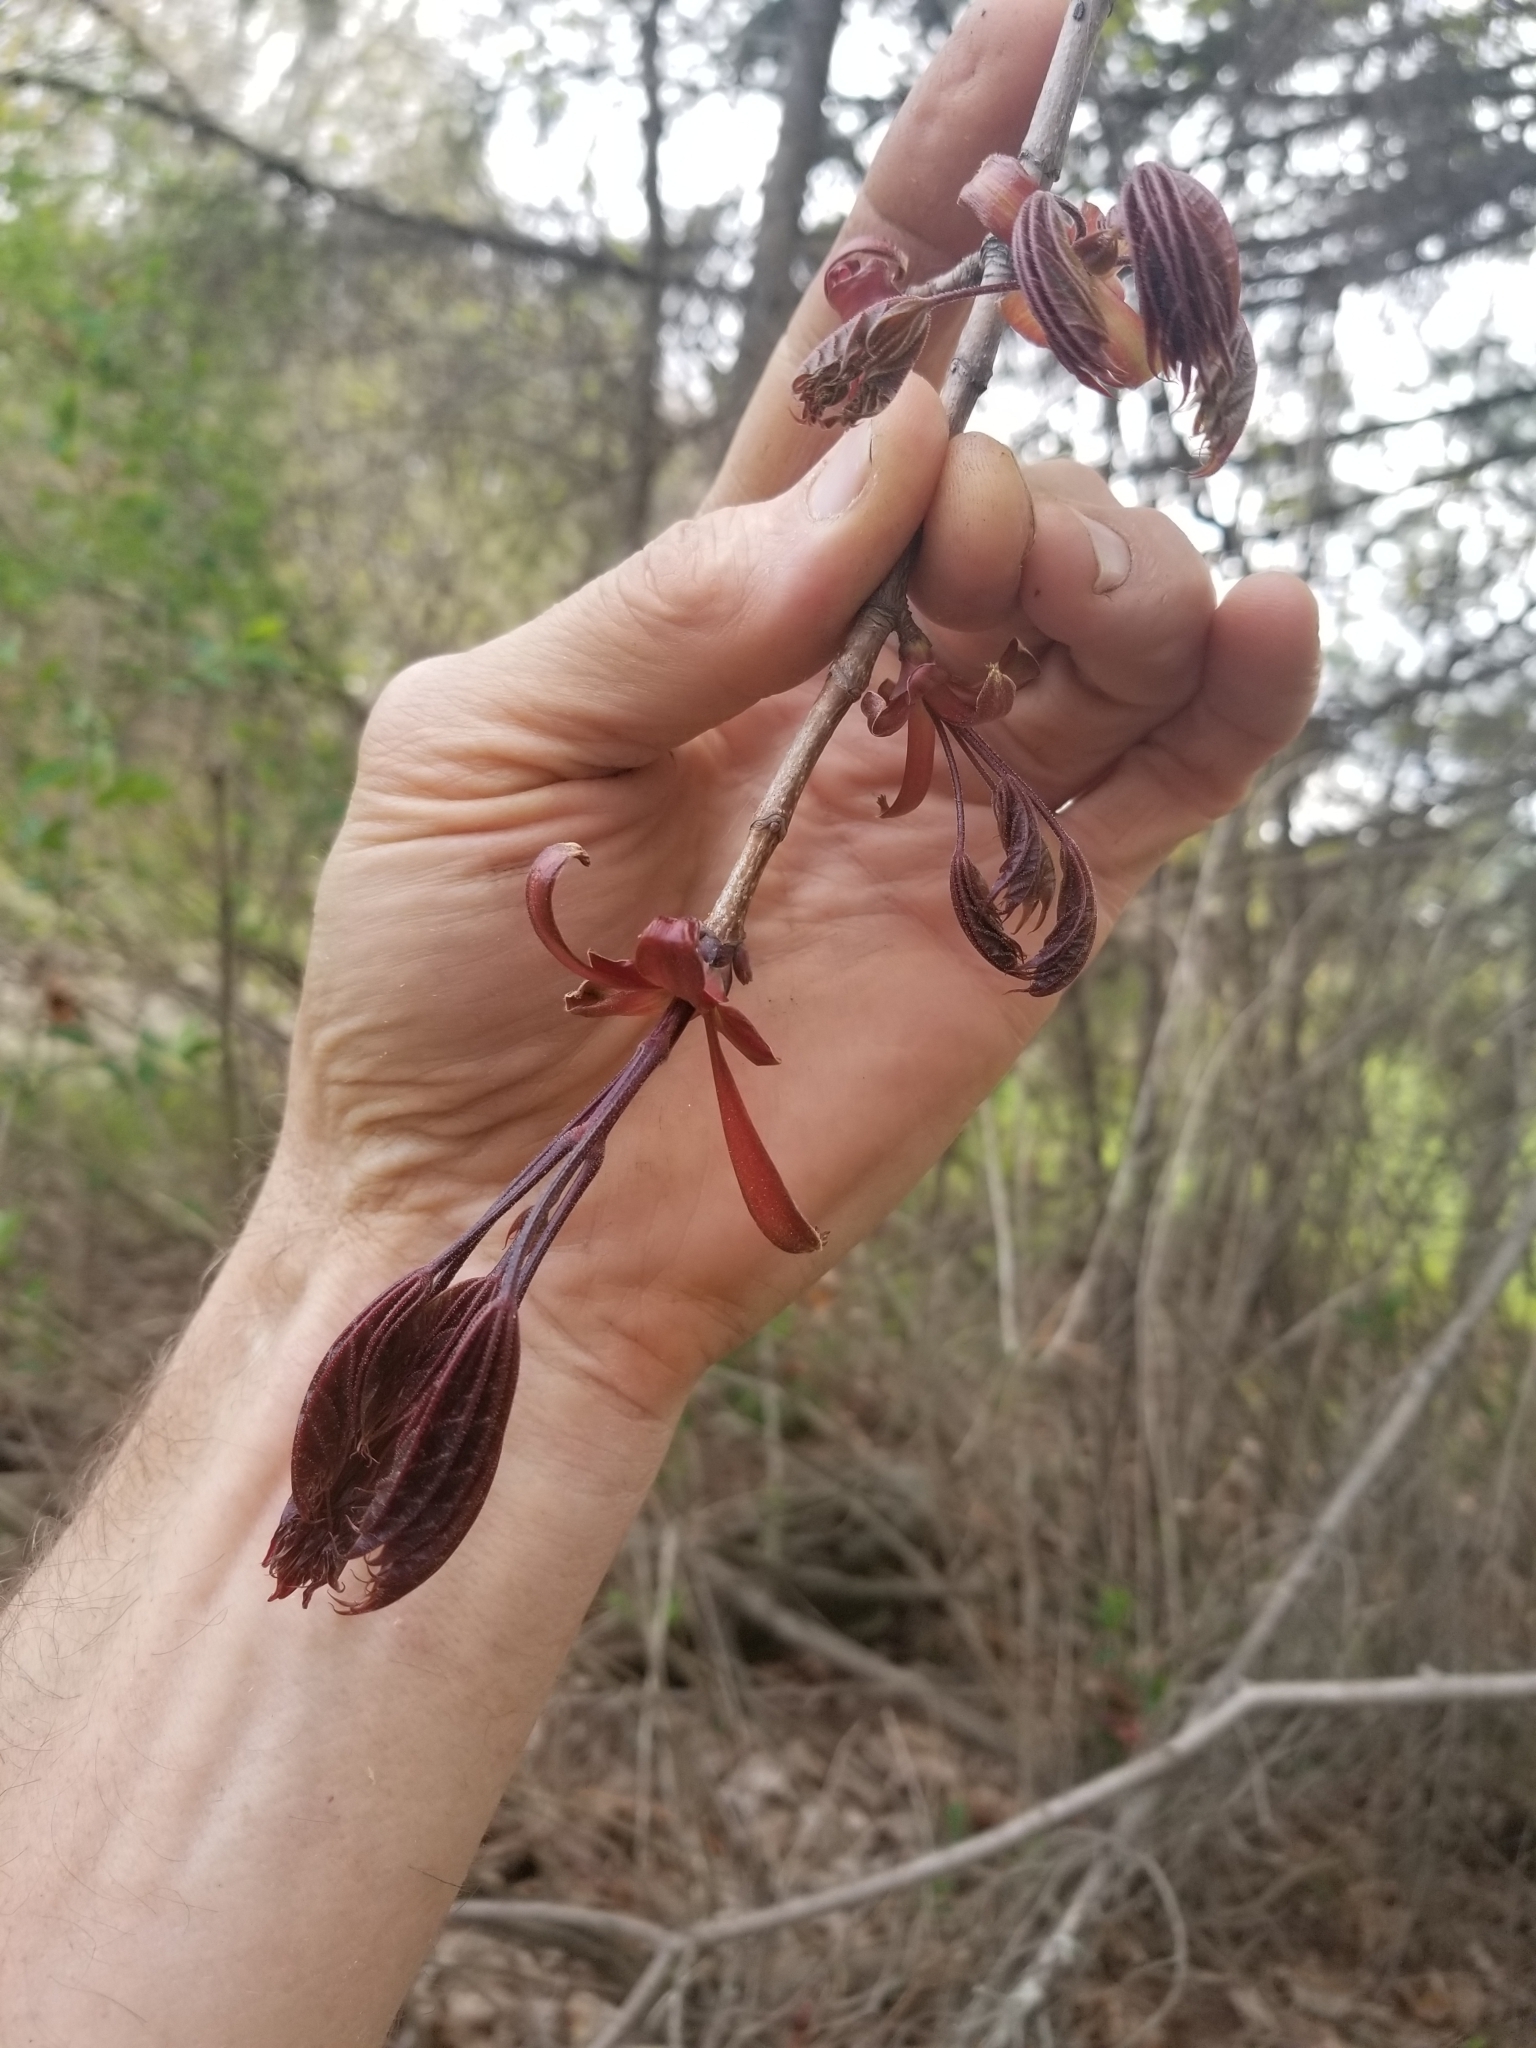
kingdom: Plantae
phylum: Tracheophyta
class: Magnoliopsida
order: Sapindales
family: Sapindaceae
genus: Acer
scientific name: Acer platanoides
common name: Norway maple
